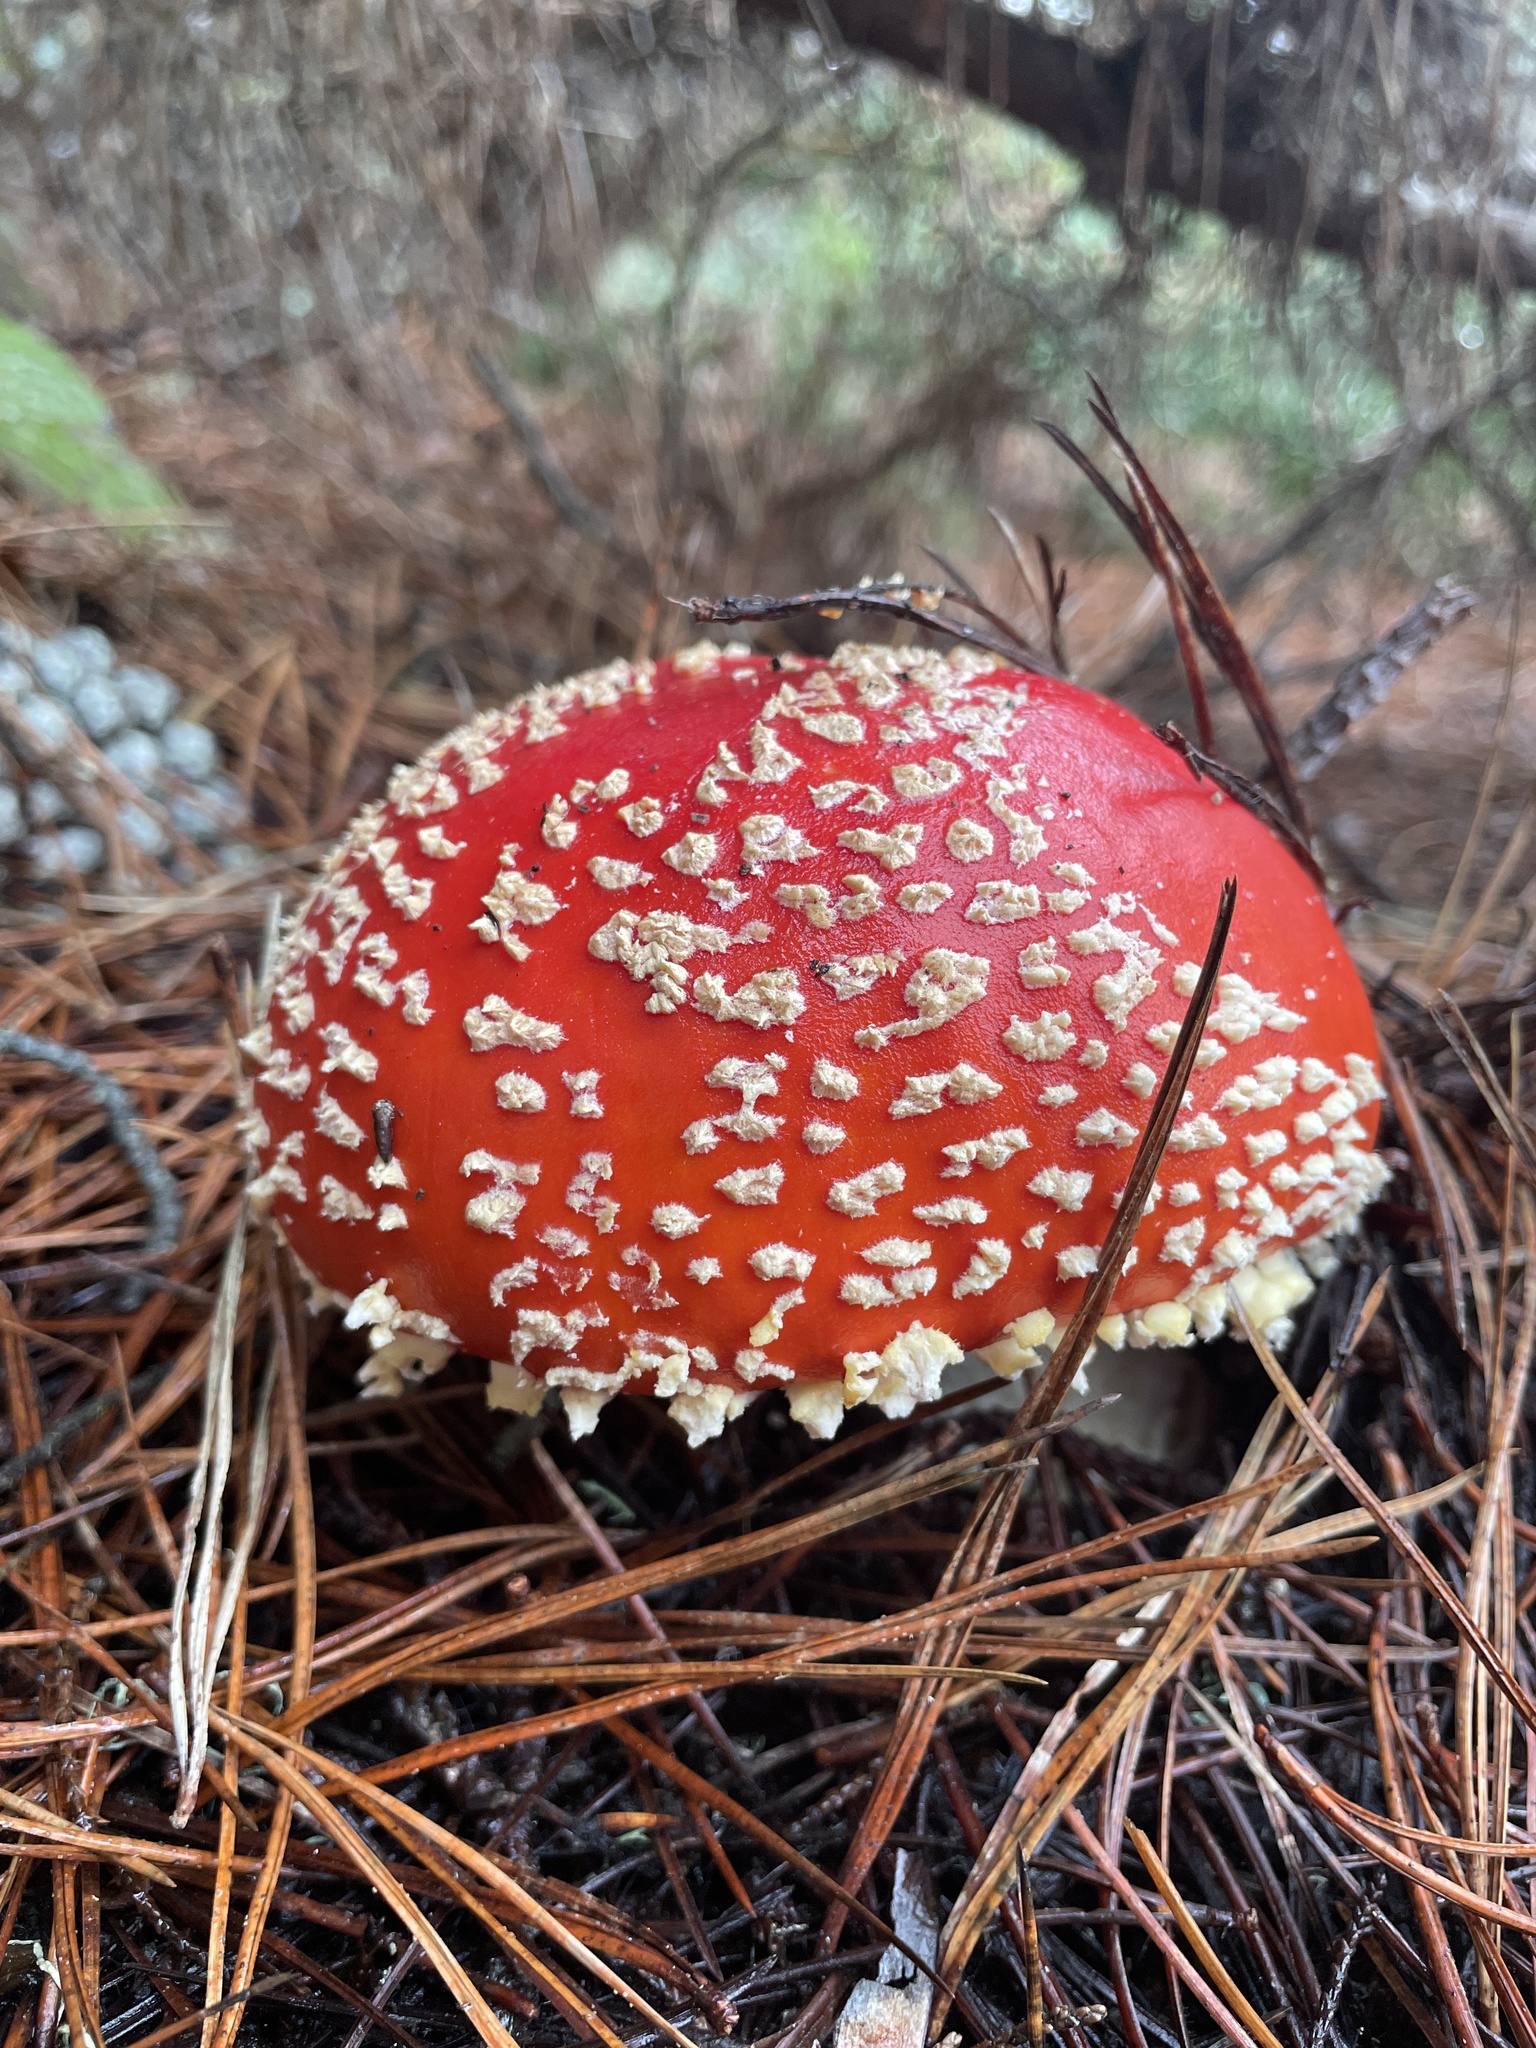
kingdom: Fungi
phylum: Basidiomycota
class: Agaricomycetes
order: Agaricales
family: Amanitaceae
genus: Amanita
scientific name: Amanita muscaria
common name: Fly agaric
